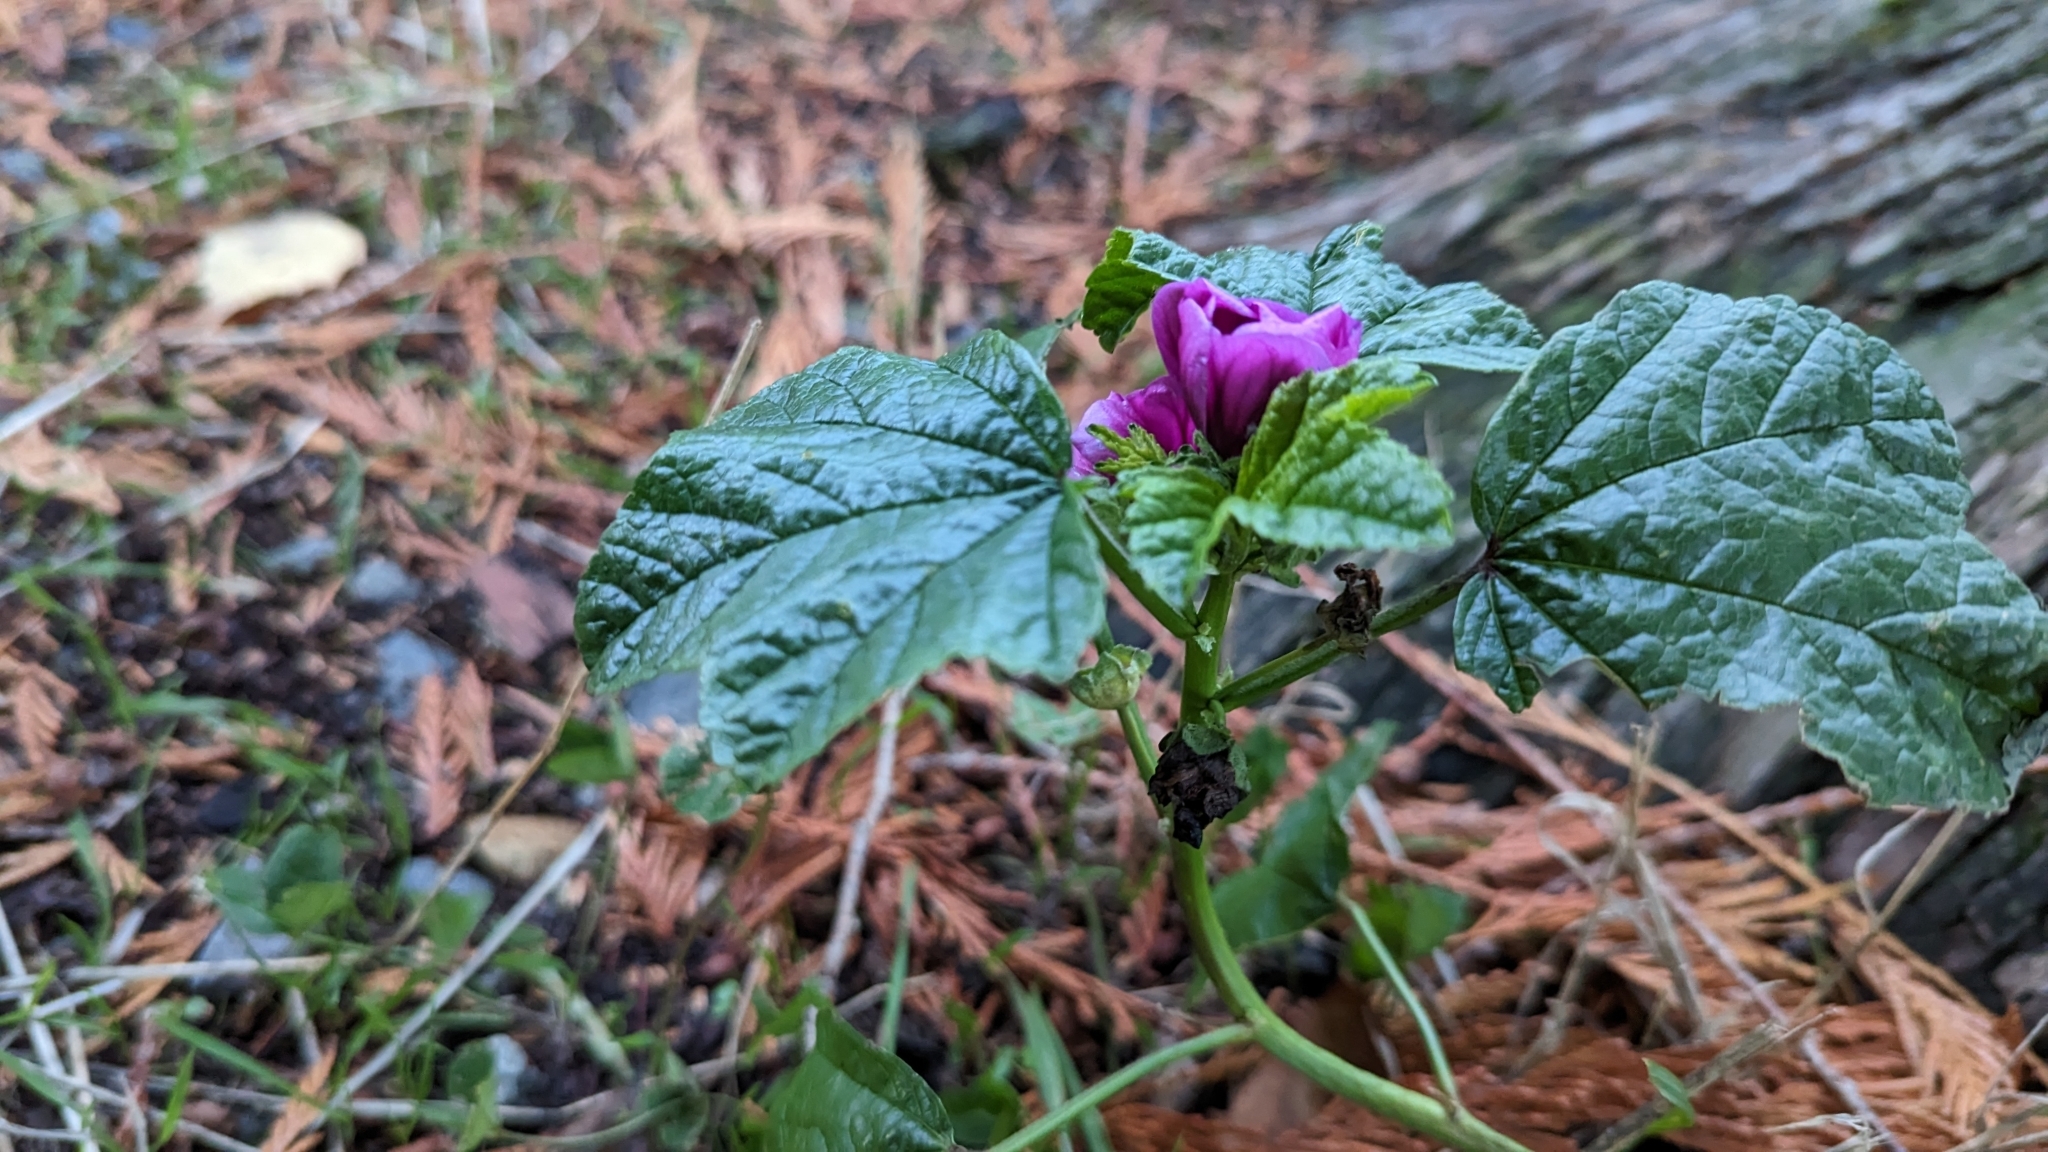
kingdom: Plantae
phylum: Tracheophyta
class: Magnoliopsida
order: Malvales
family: Malvaceae
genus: Malva
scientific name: Malva sylvestris
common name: Common mallow
